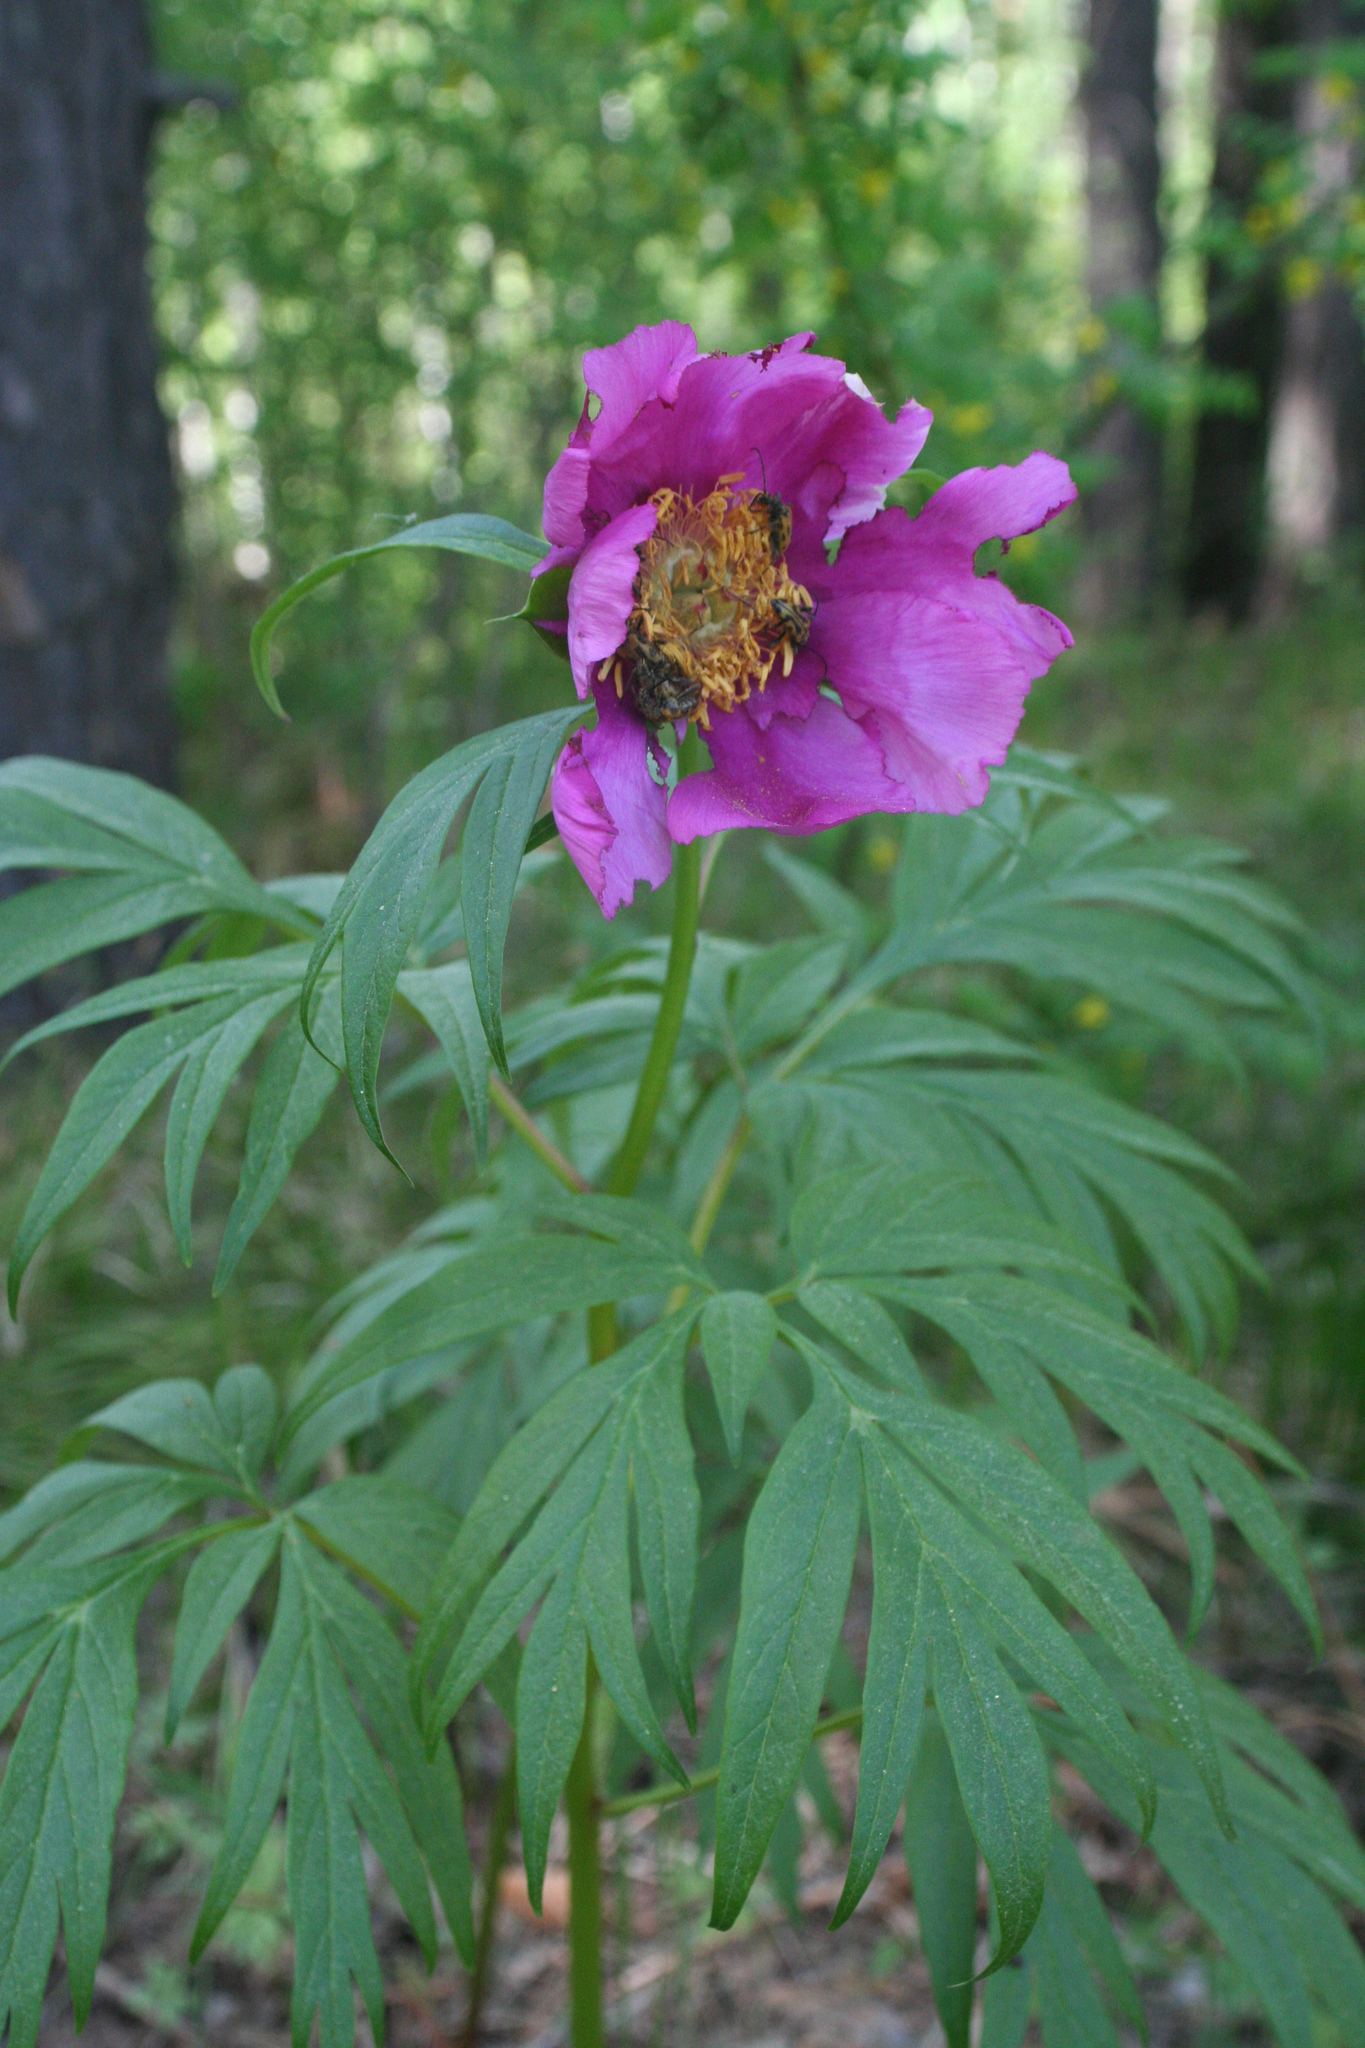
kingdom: Plantae
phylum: Tracheophyta
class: Magnoliopsida
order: Saxifragales
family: Paeoniaceae
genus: Paeonia
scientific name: Paeonia anomala
